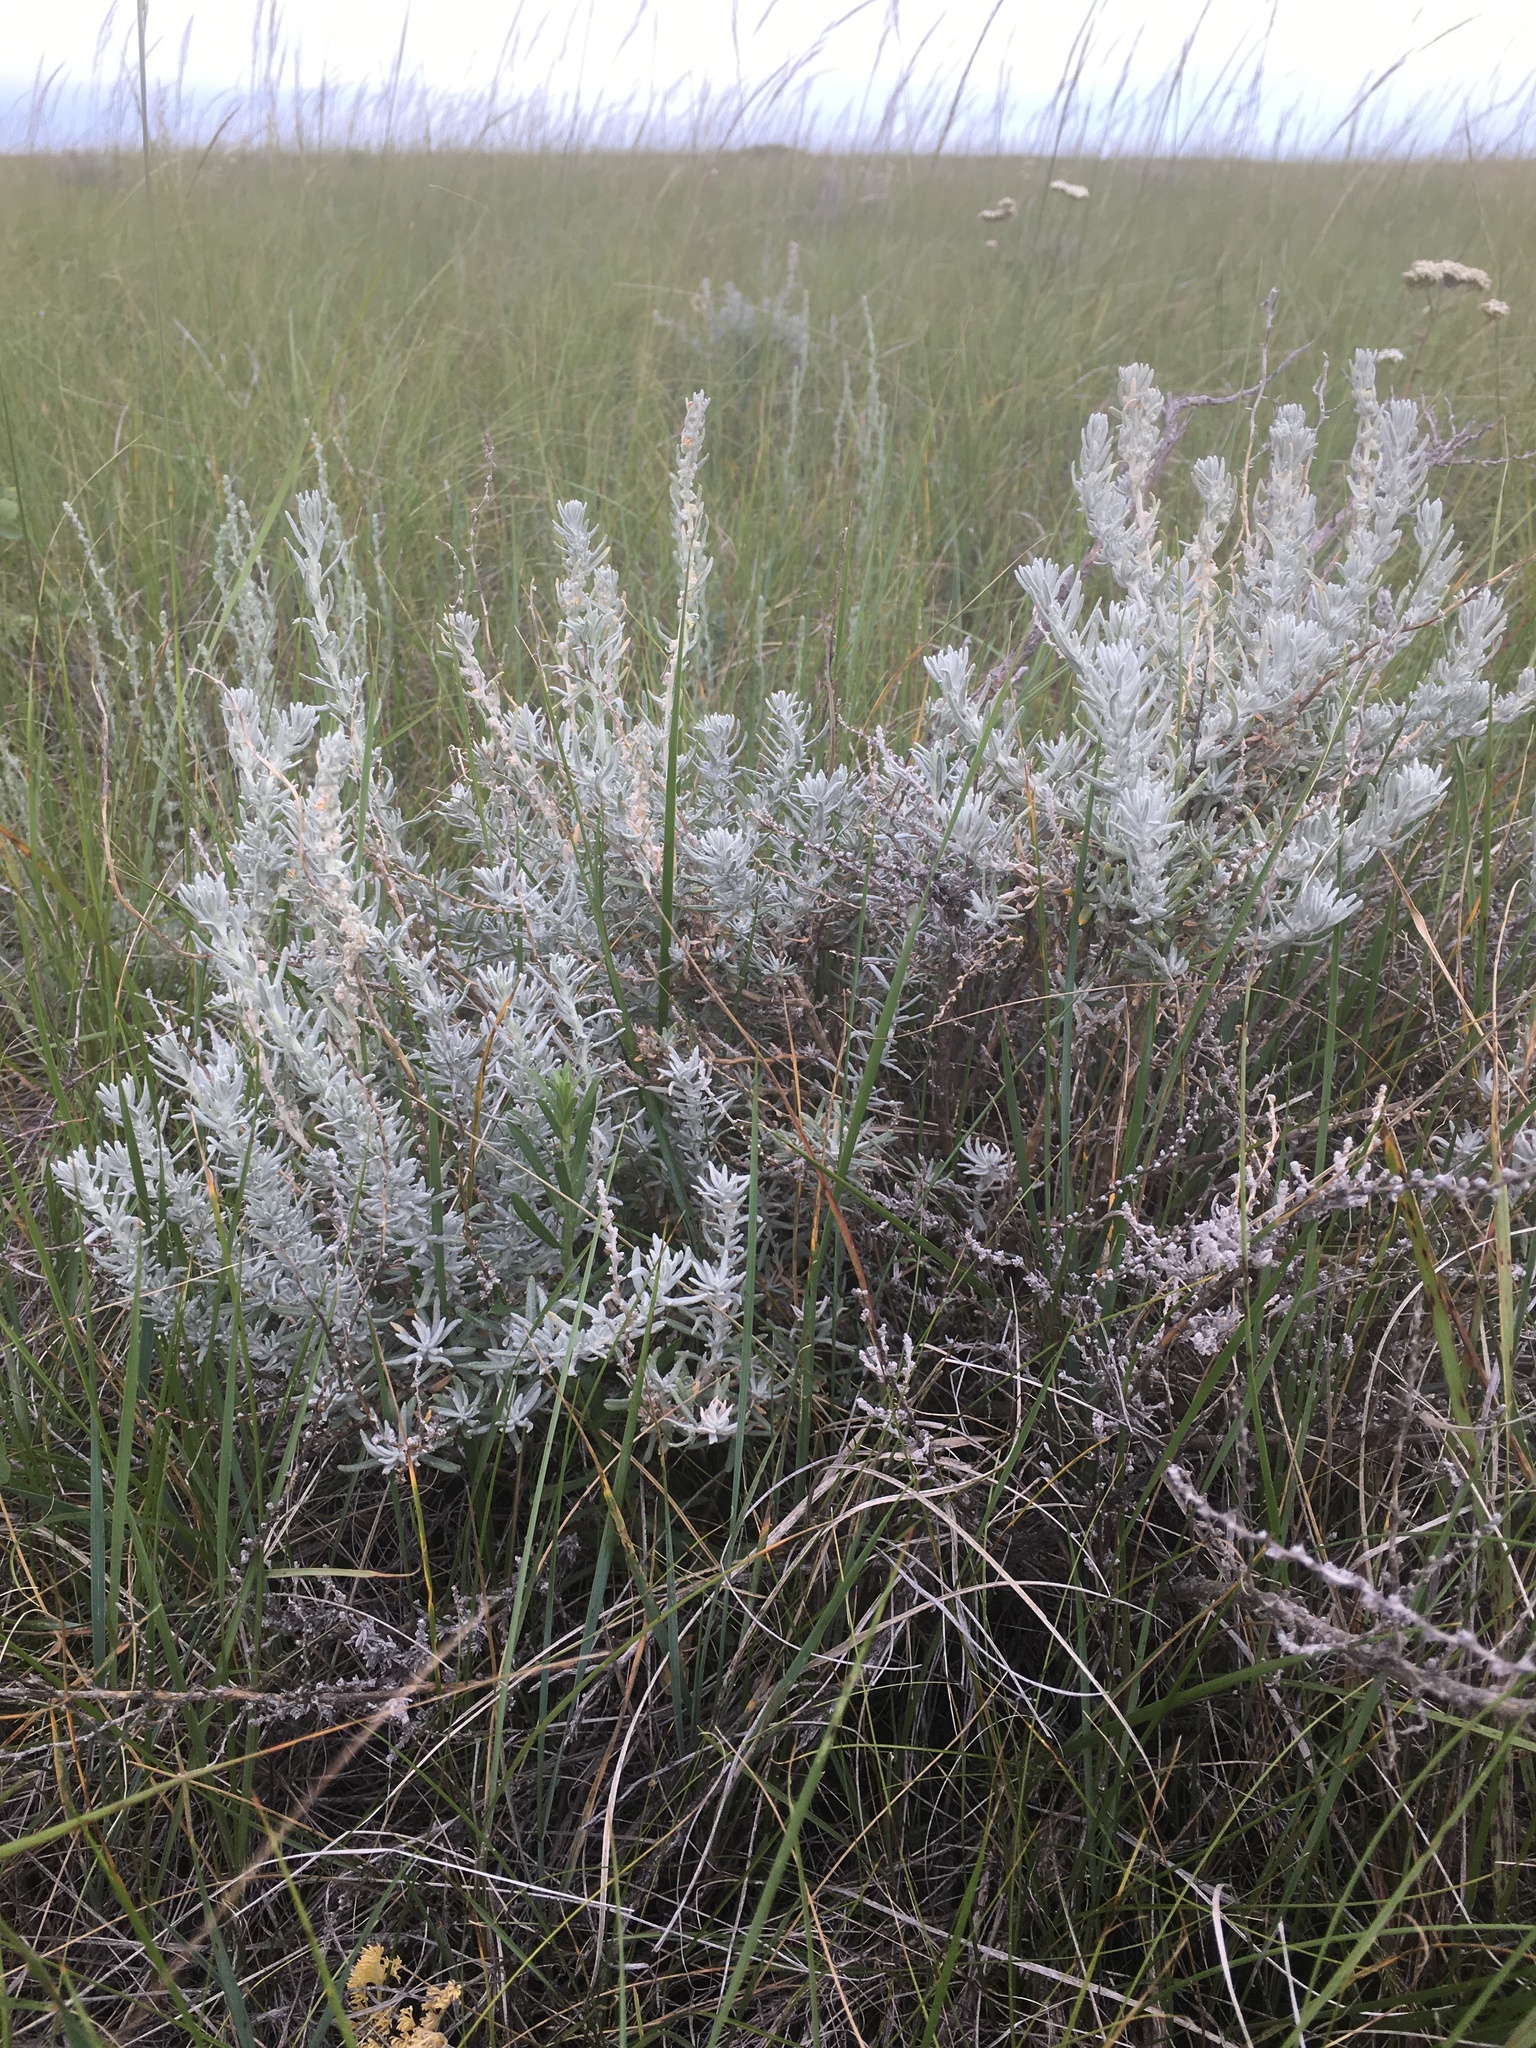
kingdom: Plantae
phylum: Tracheophyta
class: Magnoliopsida
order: Caryophyllales
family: Amaranthaceae
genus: Krascheninnikovia
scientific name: Krascheninnikovia lanata
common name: Winterfat
